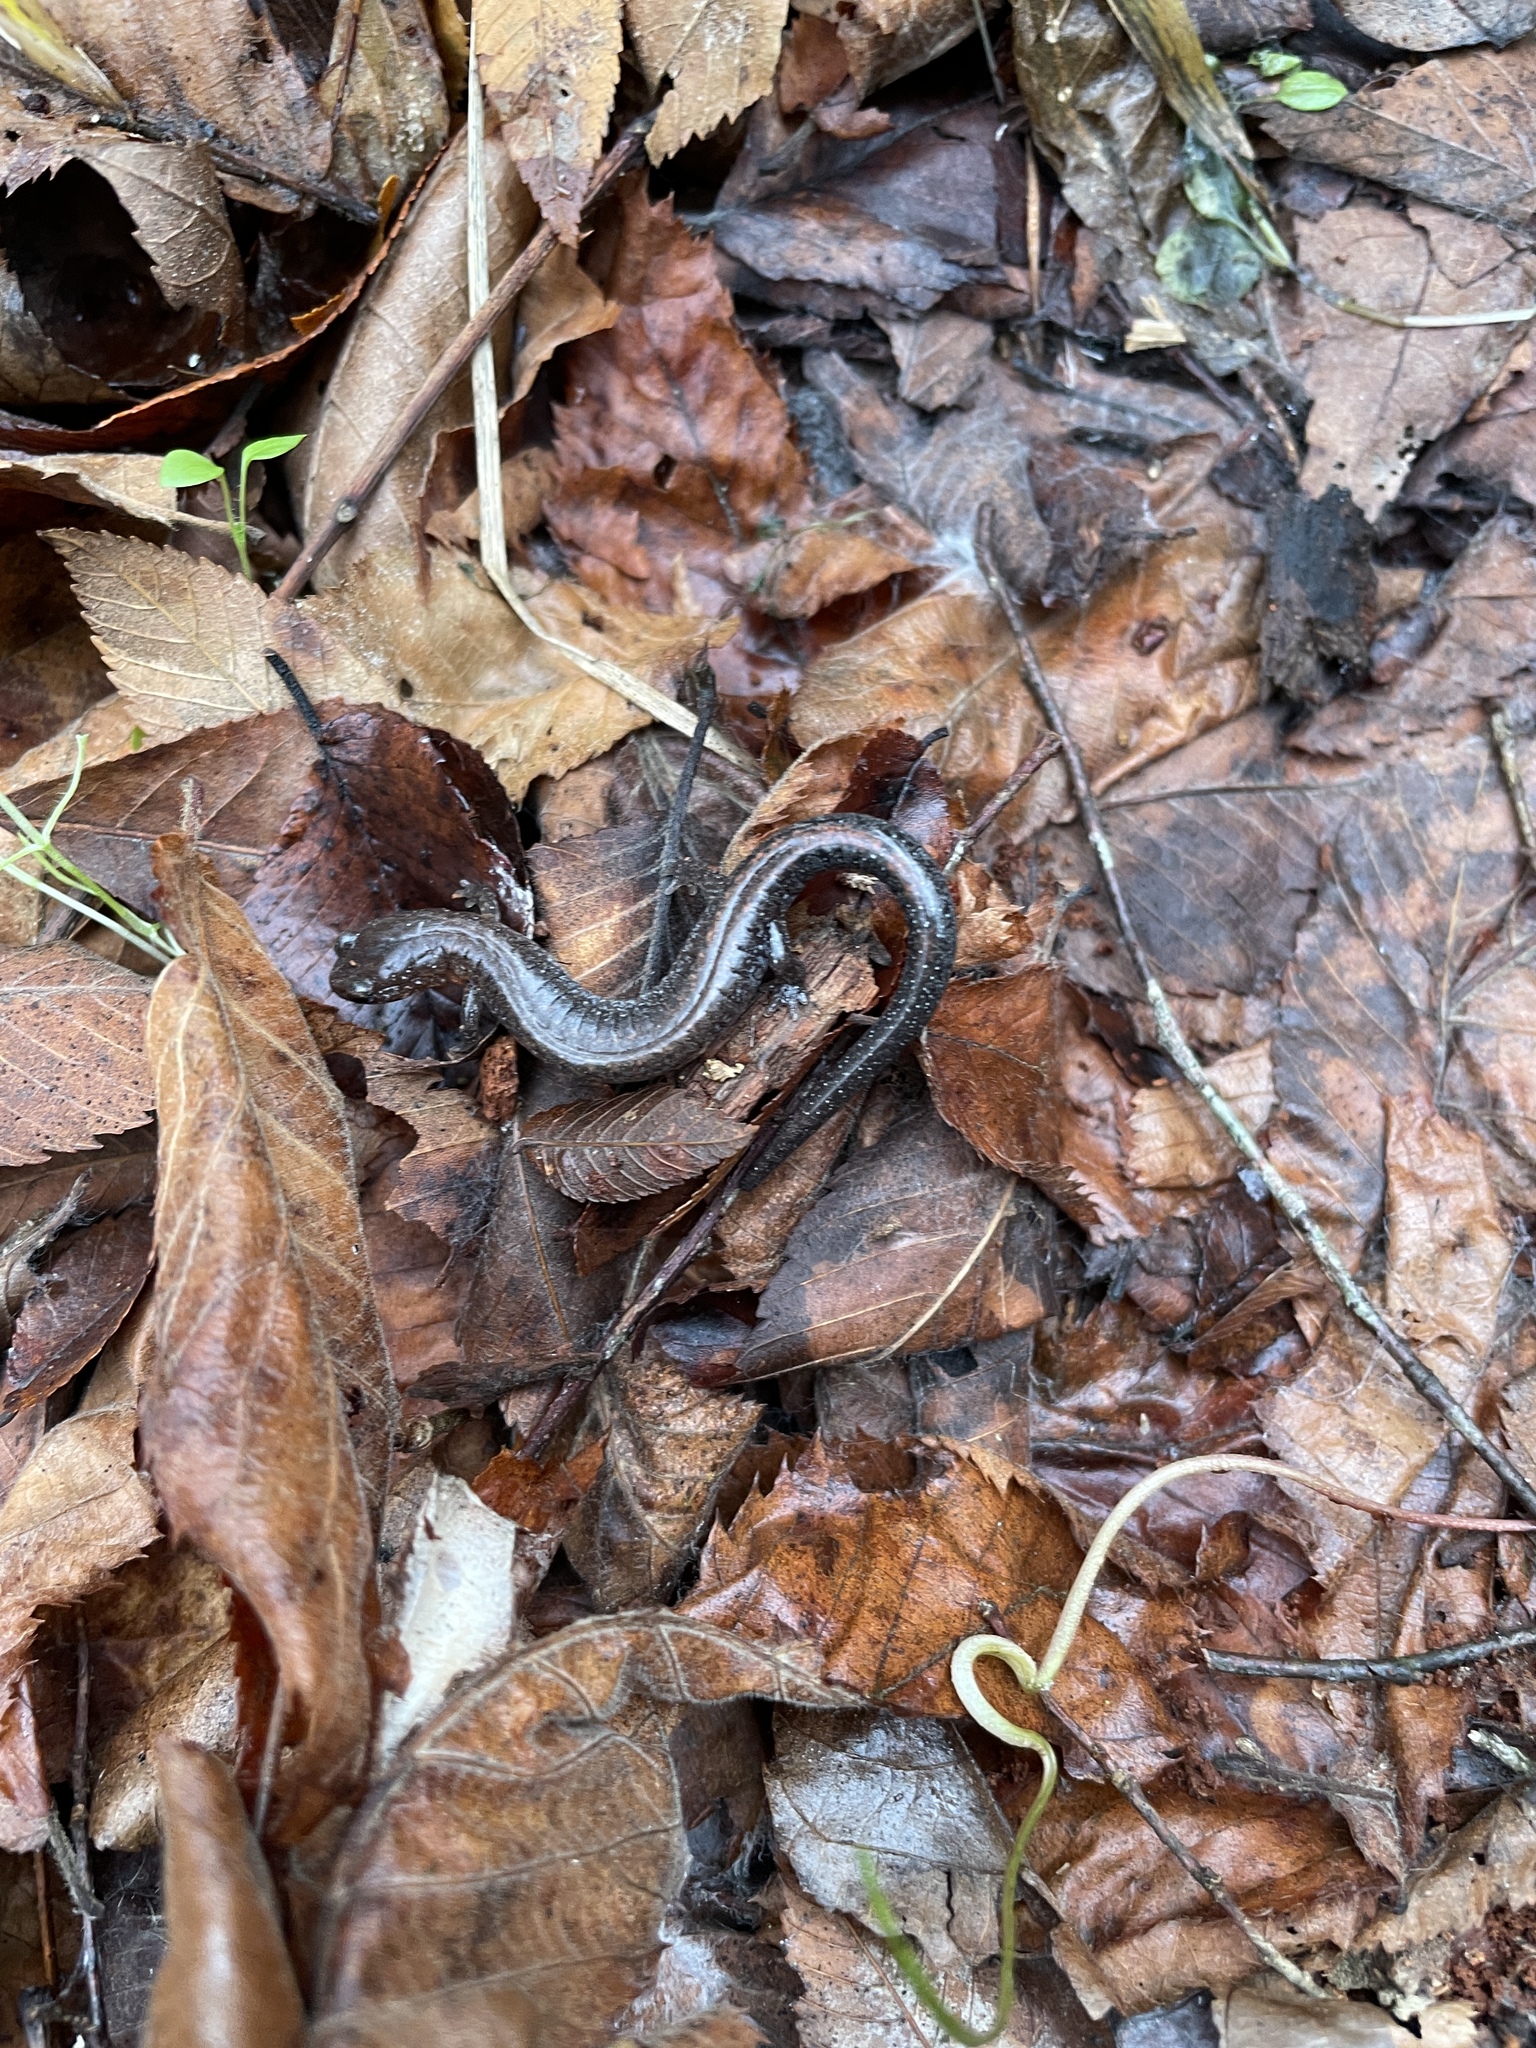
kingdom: Animalia
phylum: Chordata
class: Amphibia
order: Caudata
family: Plethodontidae
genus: Plethodon
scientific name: Plethodon serratus
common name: Southern red-backed salamander
